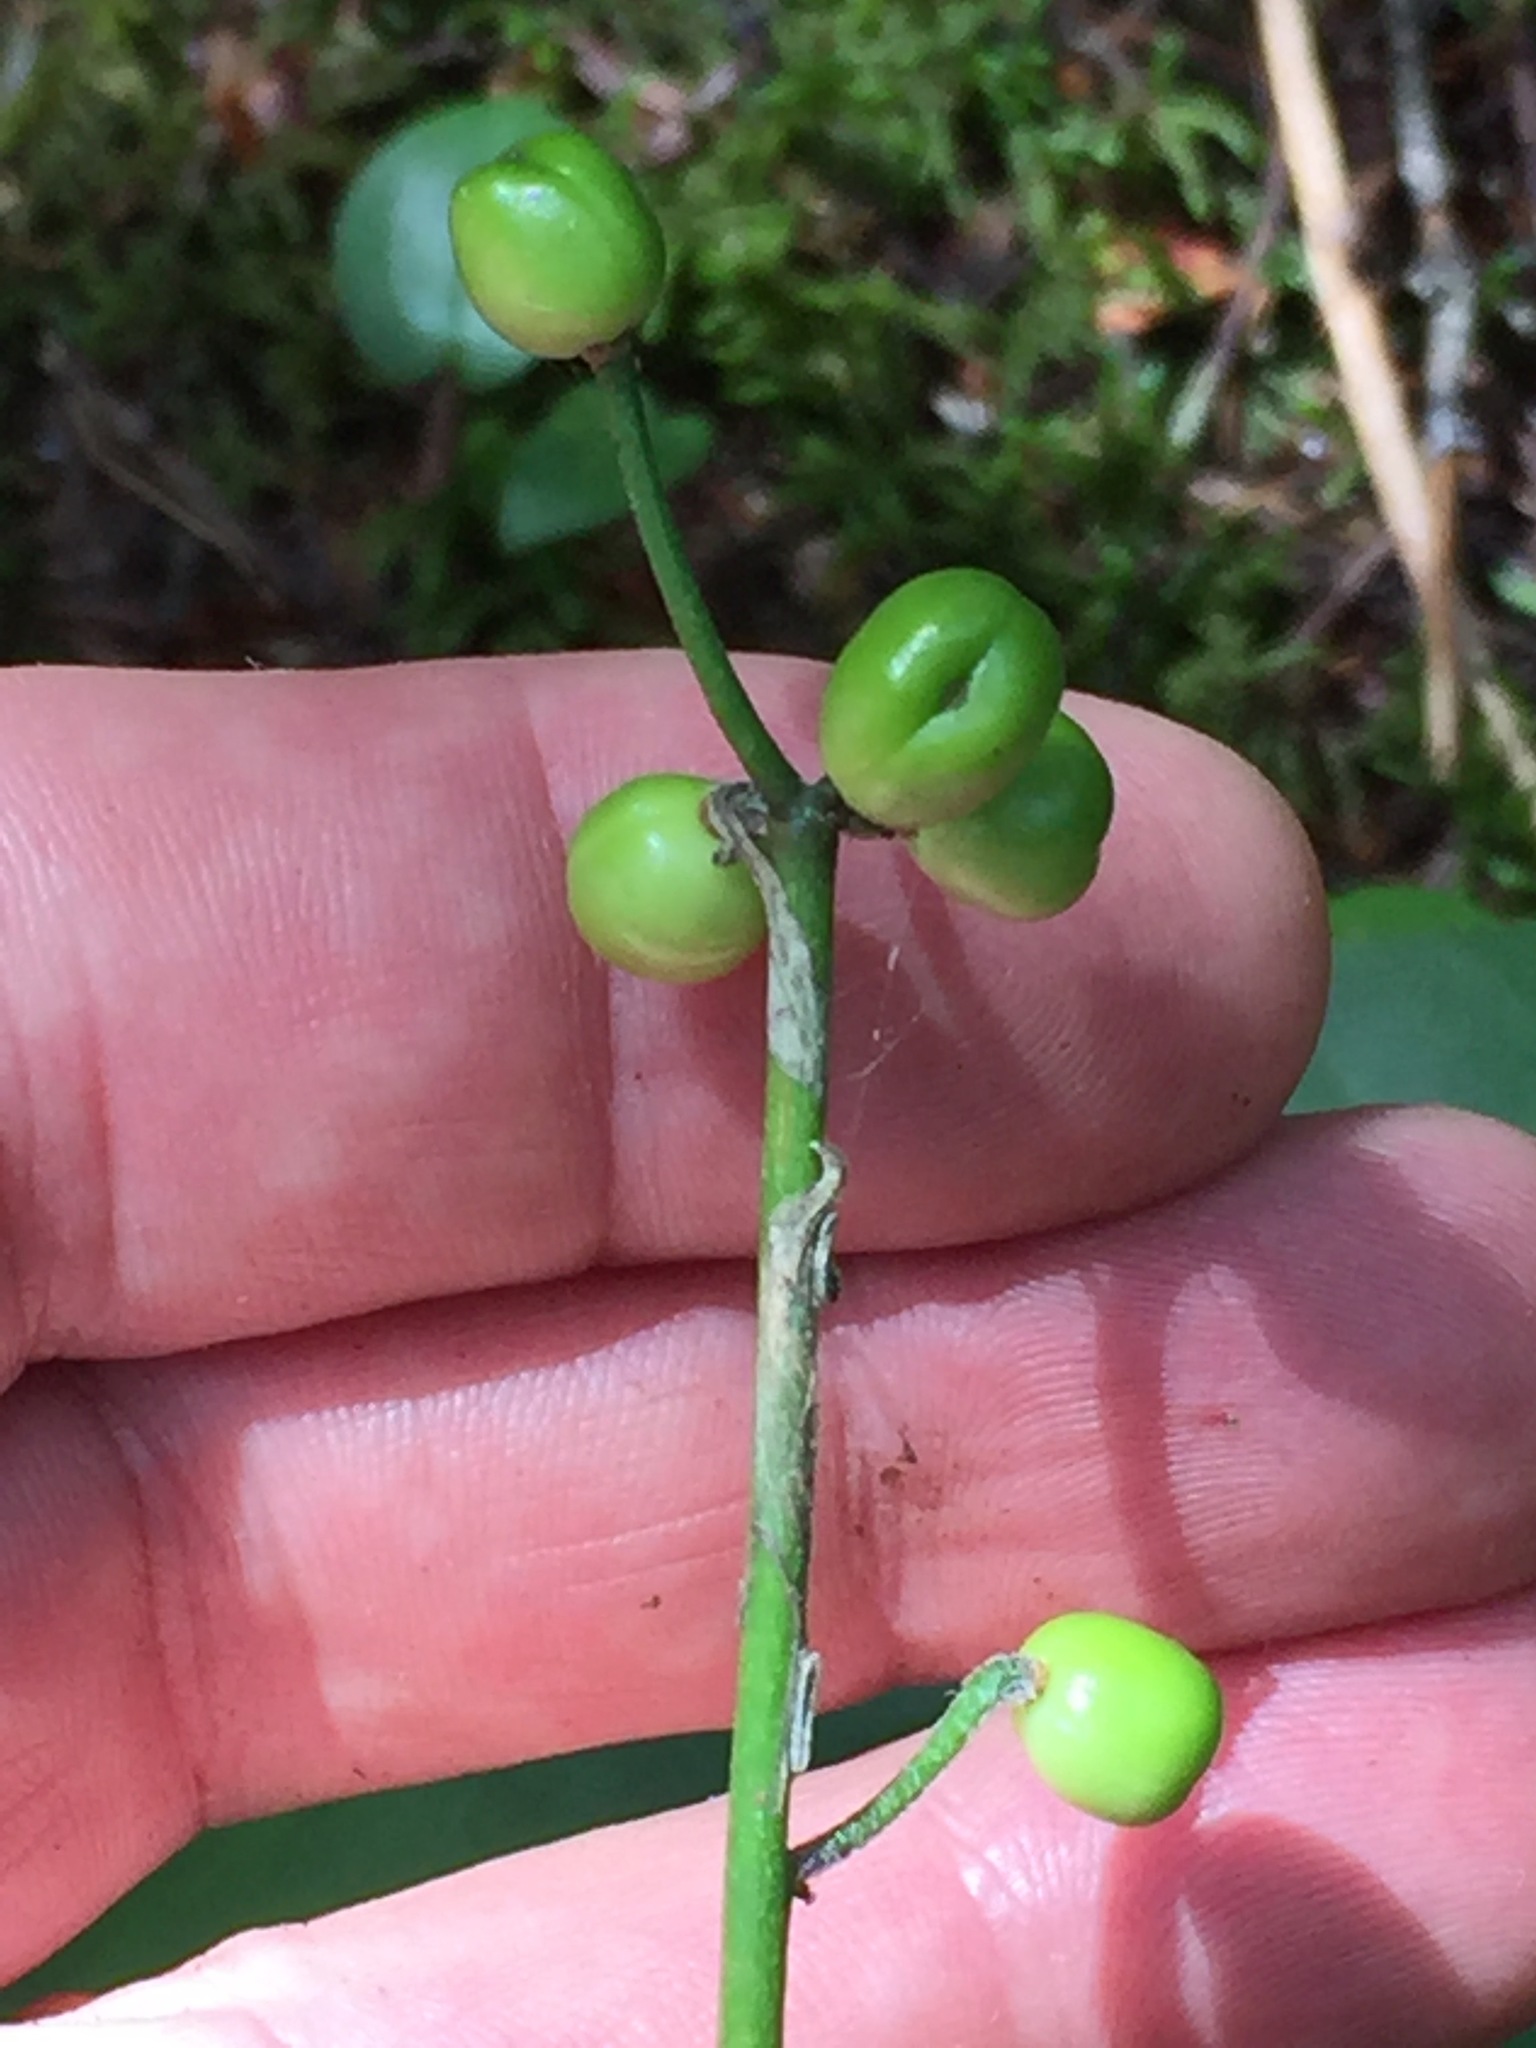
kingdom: Plantae
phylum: Tracheophyta
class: Liliopsida
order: Liliales
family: Liliaceae
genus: Clintonia
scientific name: Clintonia borealis
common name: Yellow clintonia
